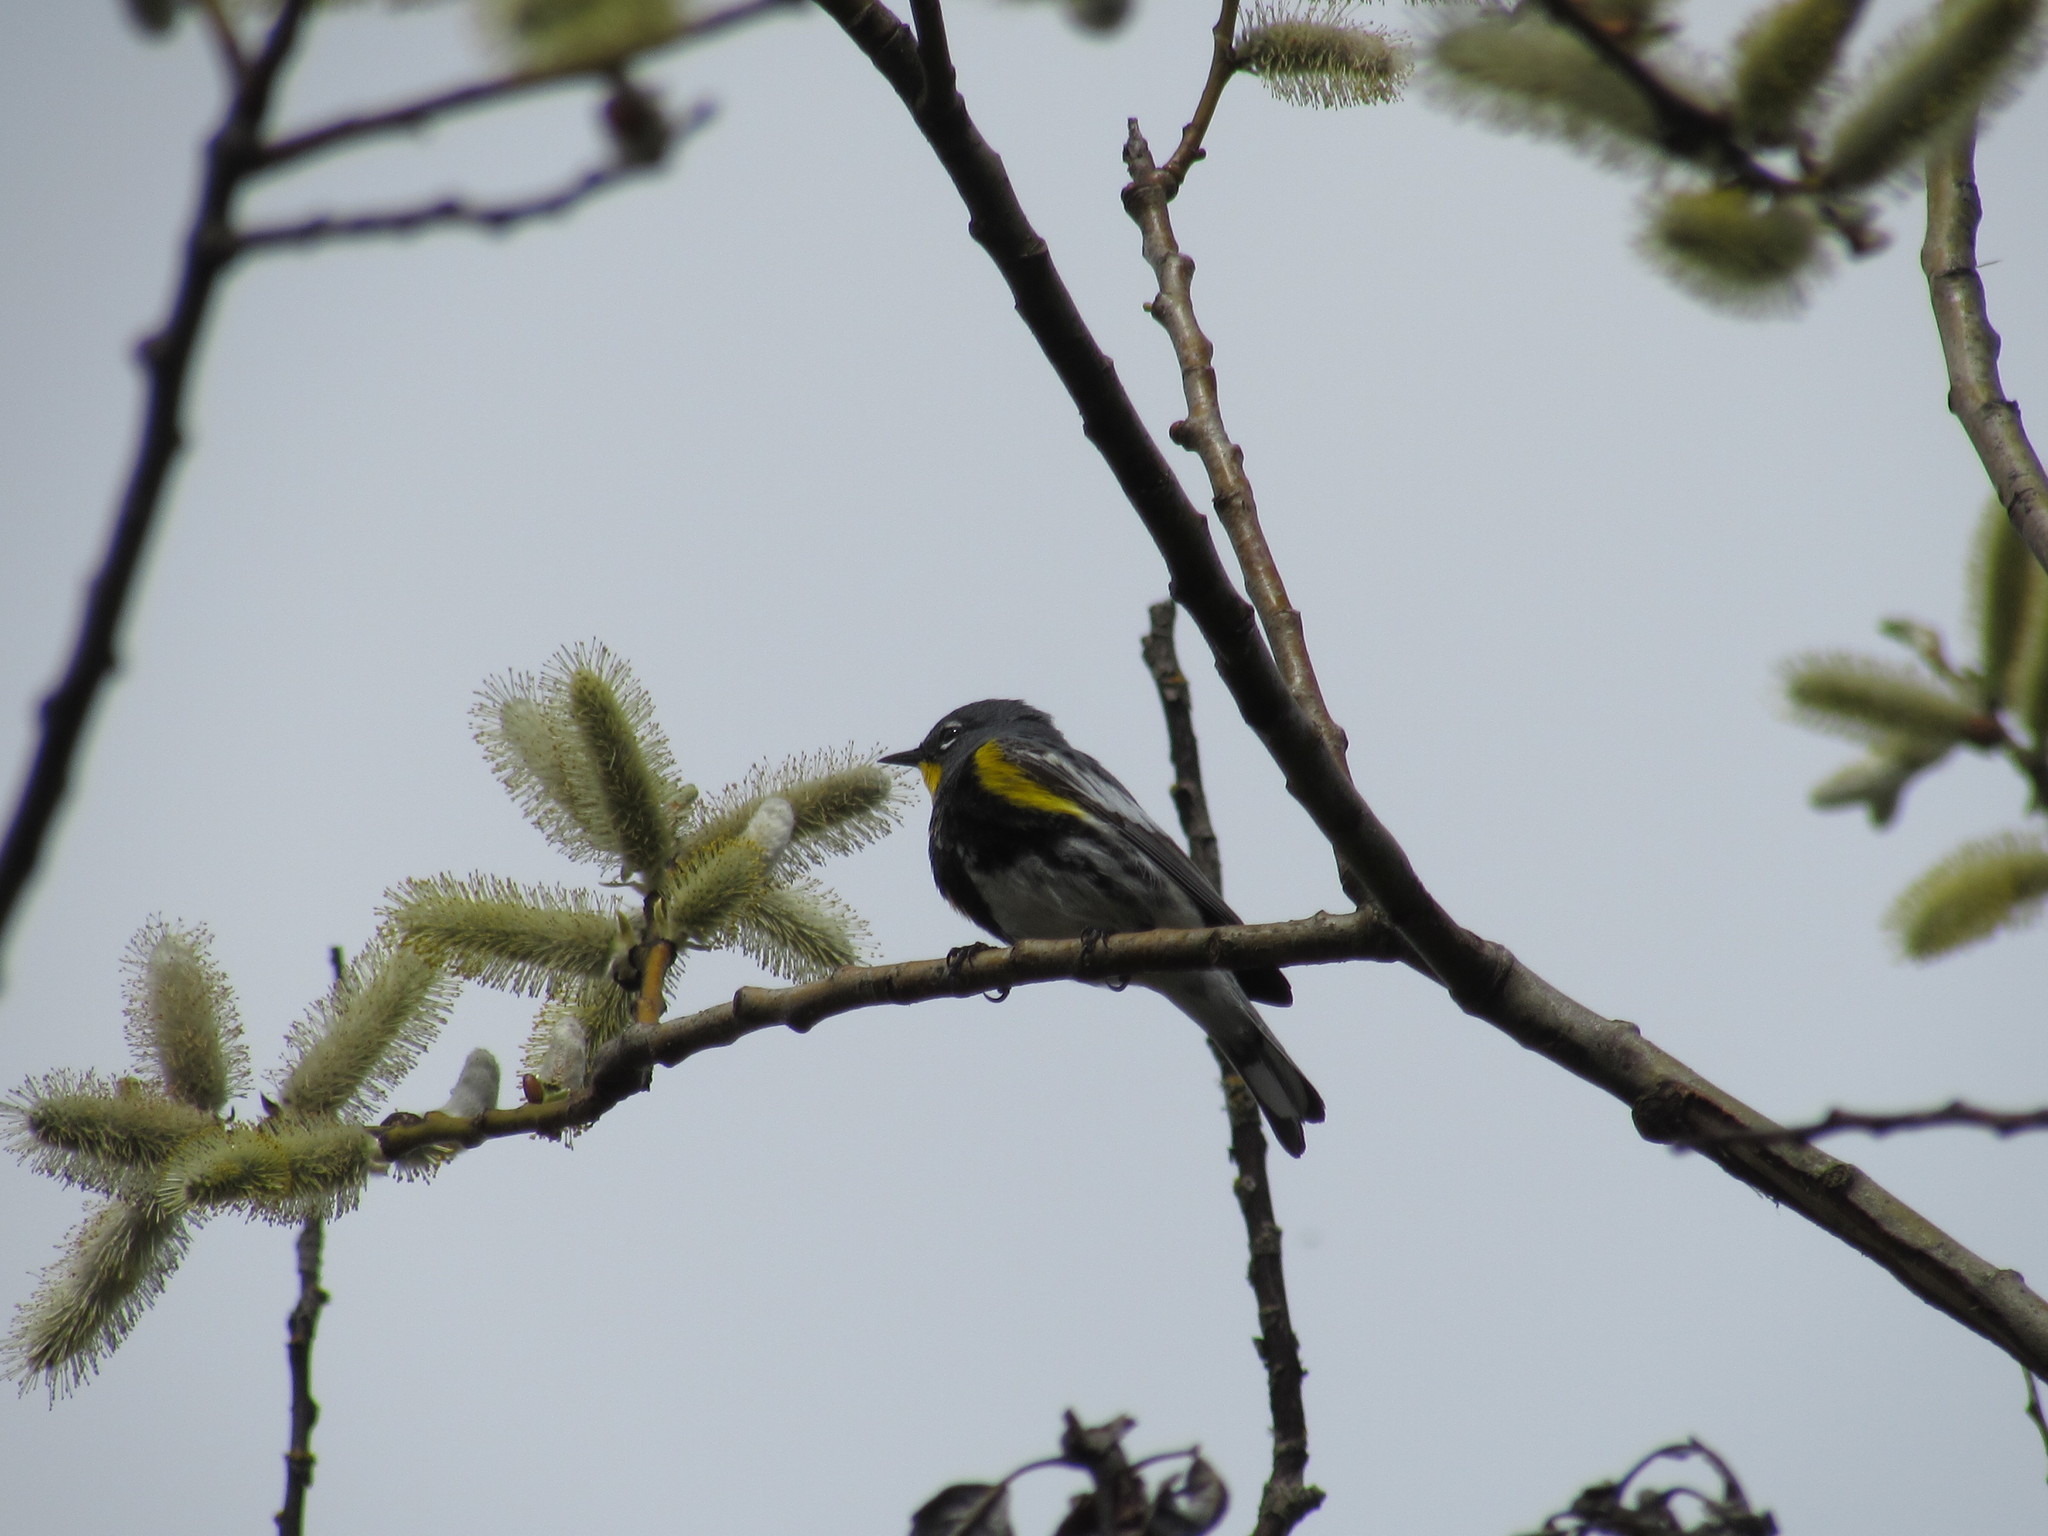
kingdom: Animalia
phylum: Chordata
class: Aves
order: Passeriformes
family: Parulidae
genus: Setophaga
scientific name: Setophaga coronata
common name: Myrtle warbler
